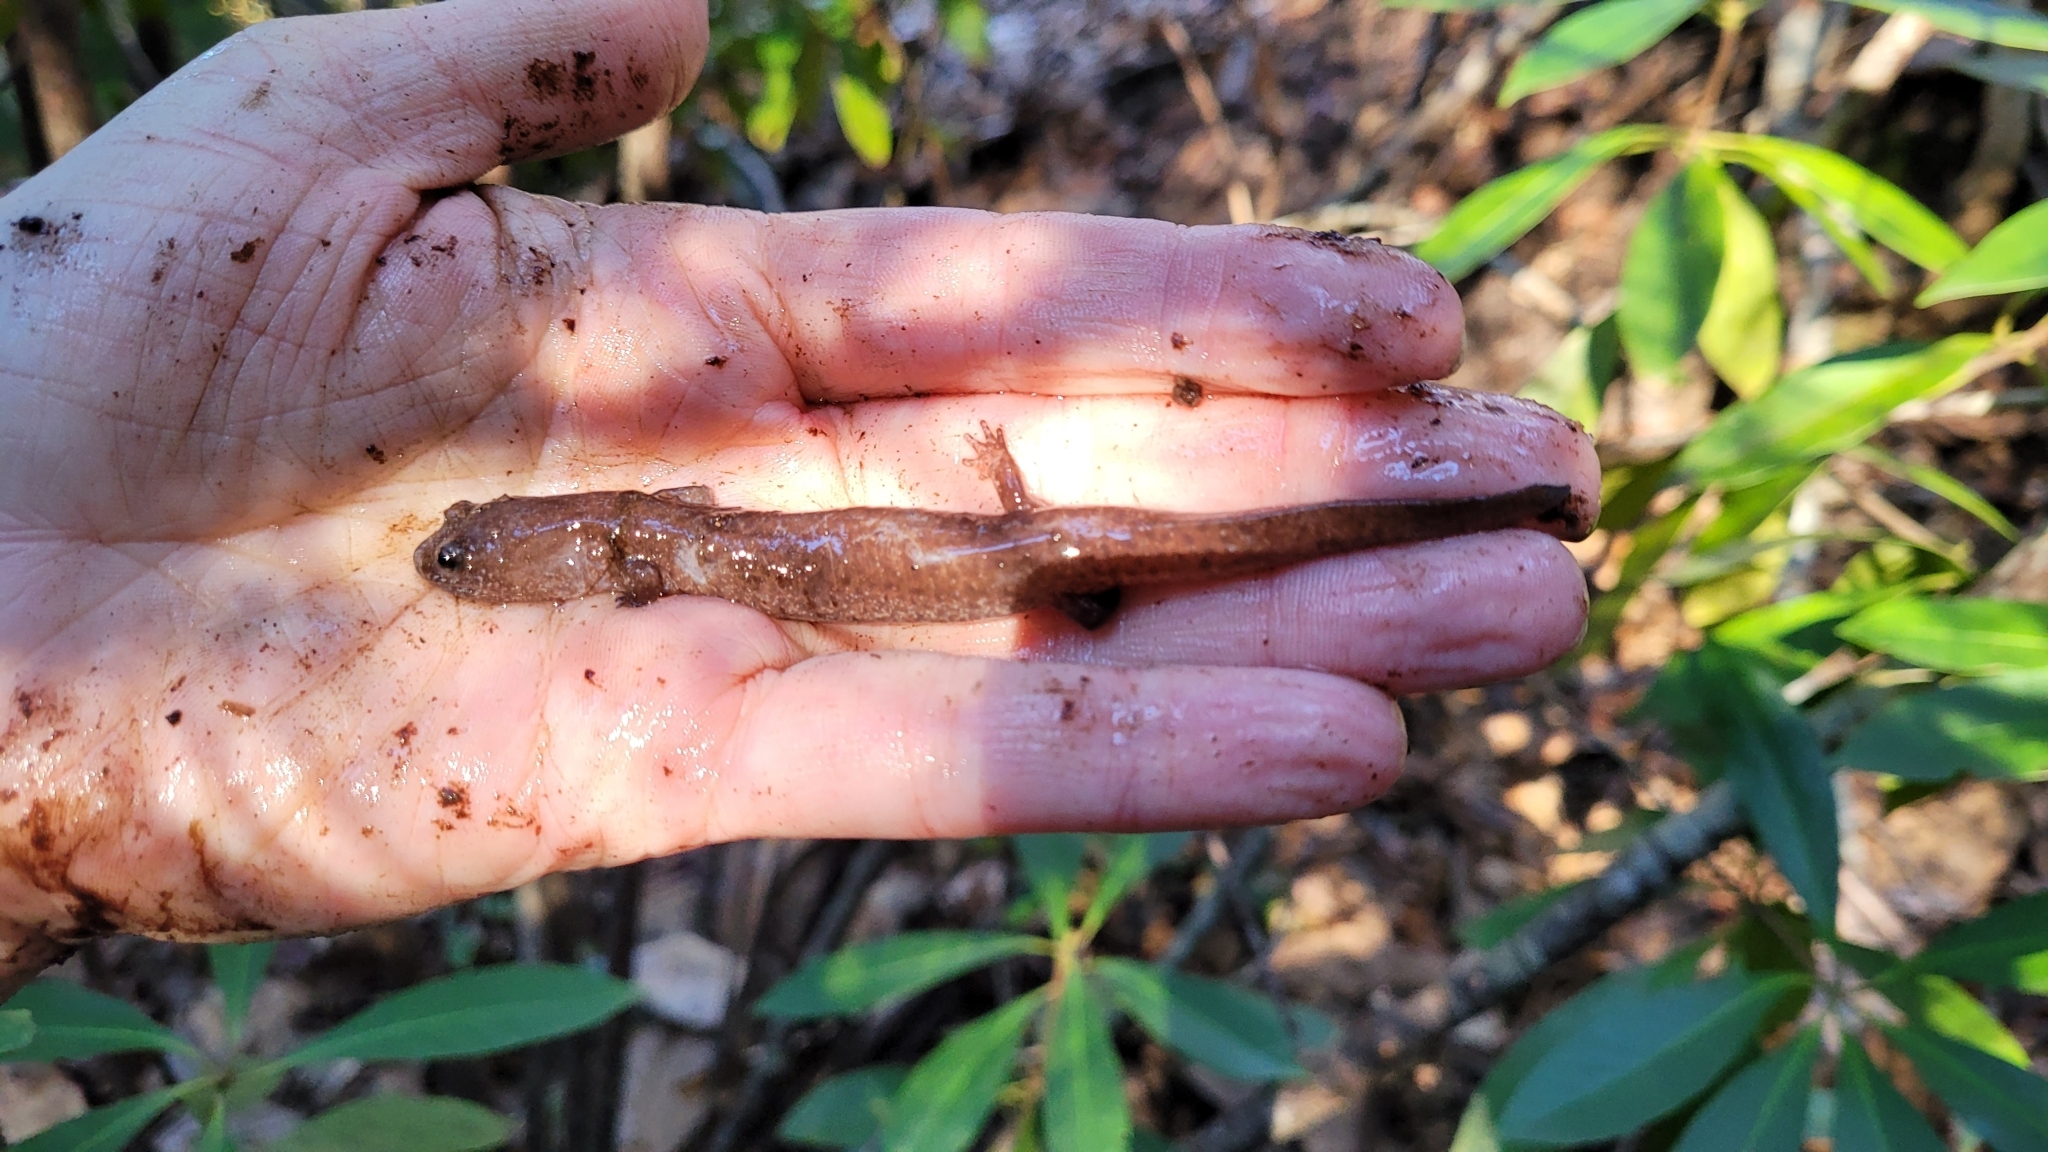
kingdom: Animalia
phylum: Chordata
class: Amphibia
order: Caudata
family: Plethodontidae
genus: Pseudotriton
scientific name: Pseudotriton ruber
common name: Red salamander
